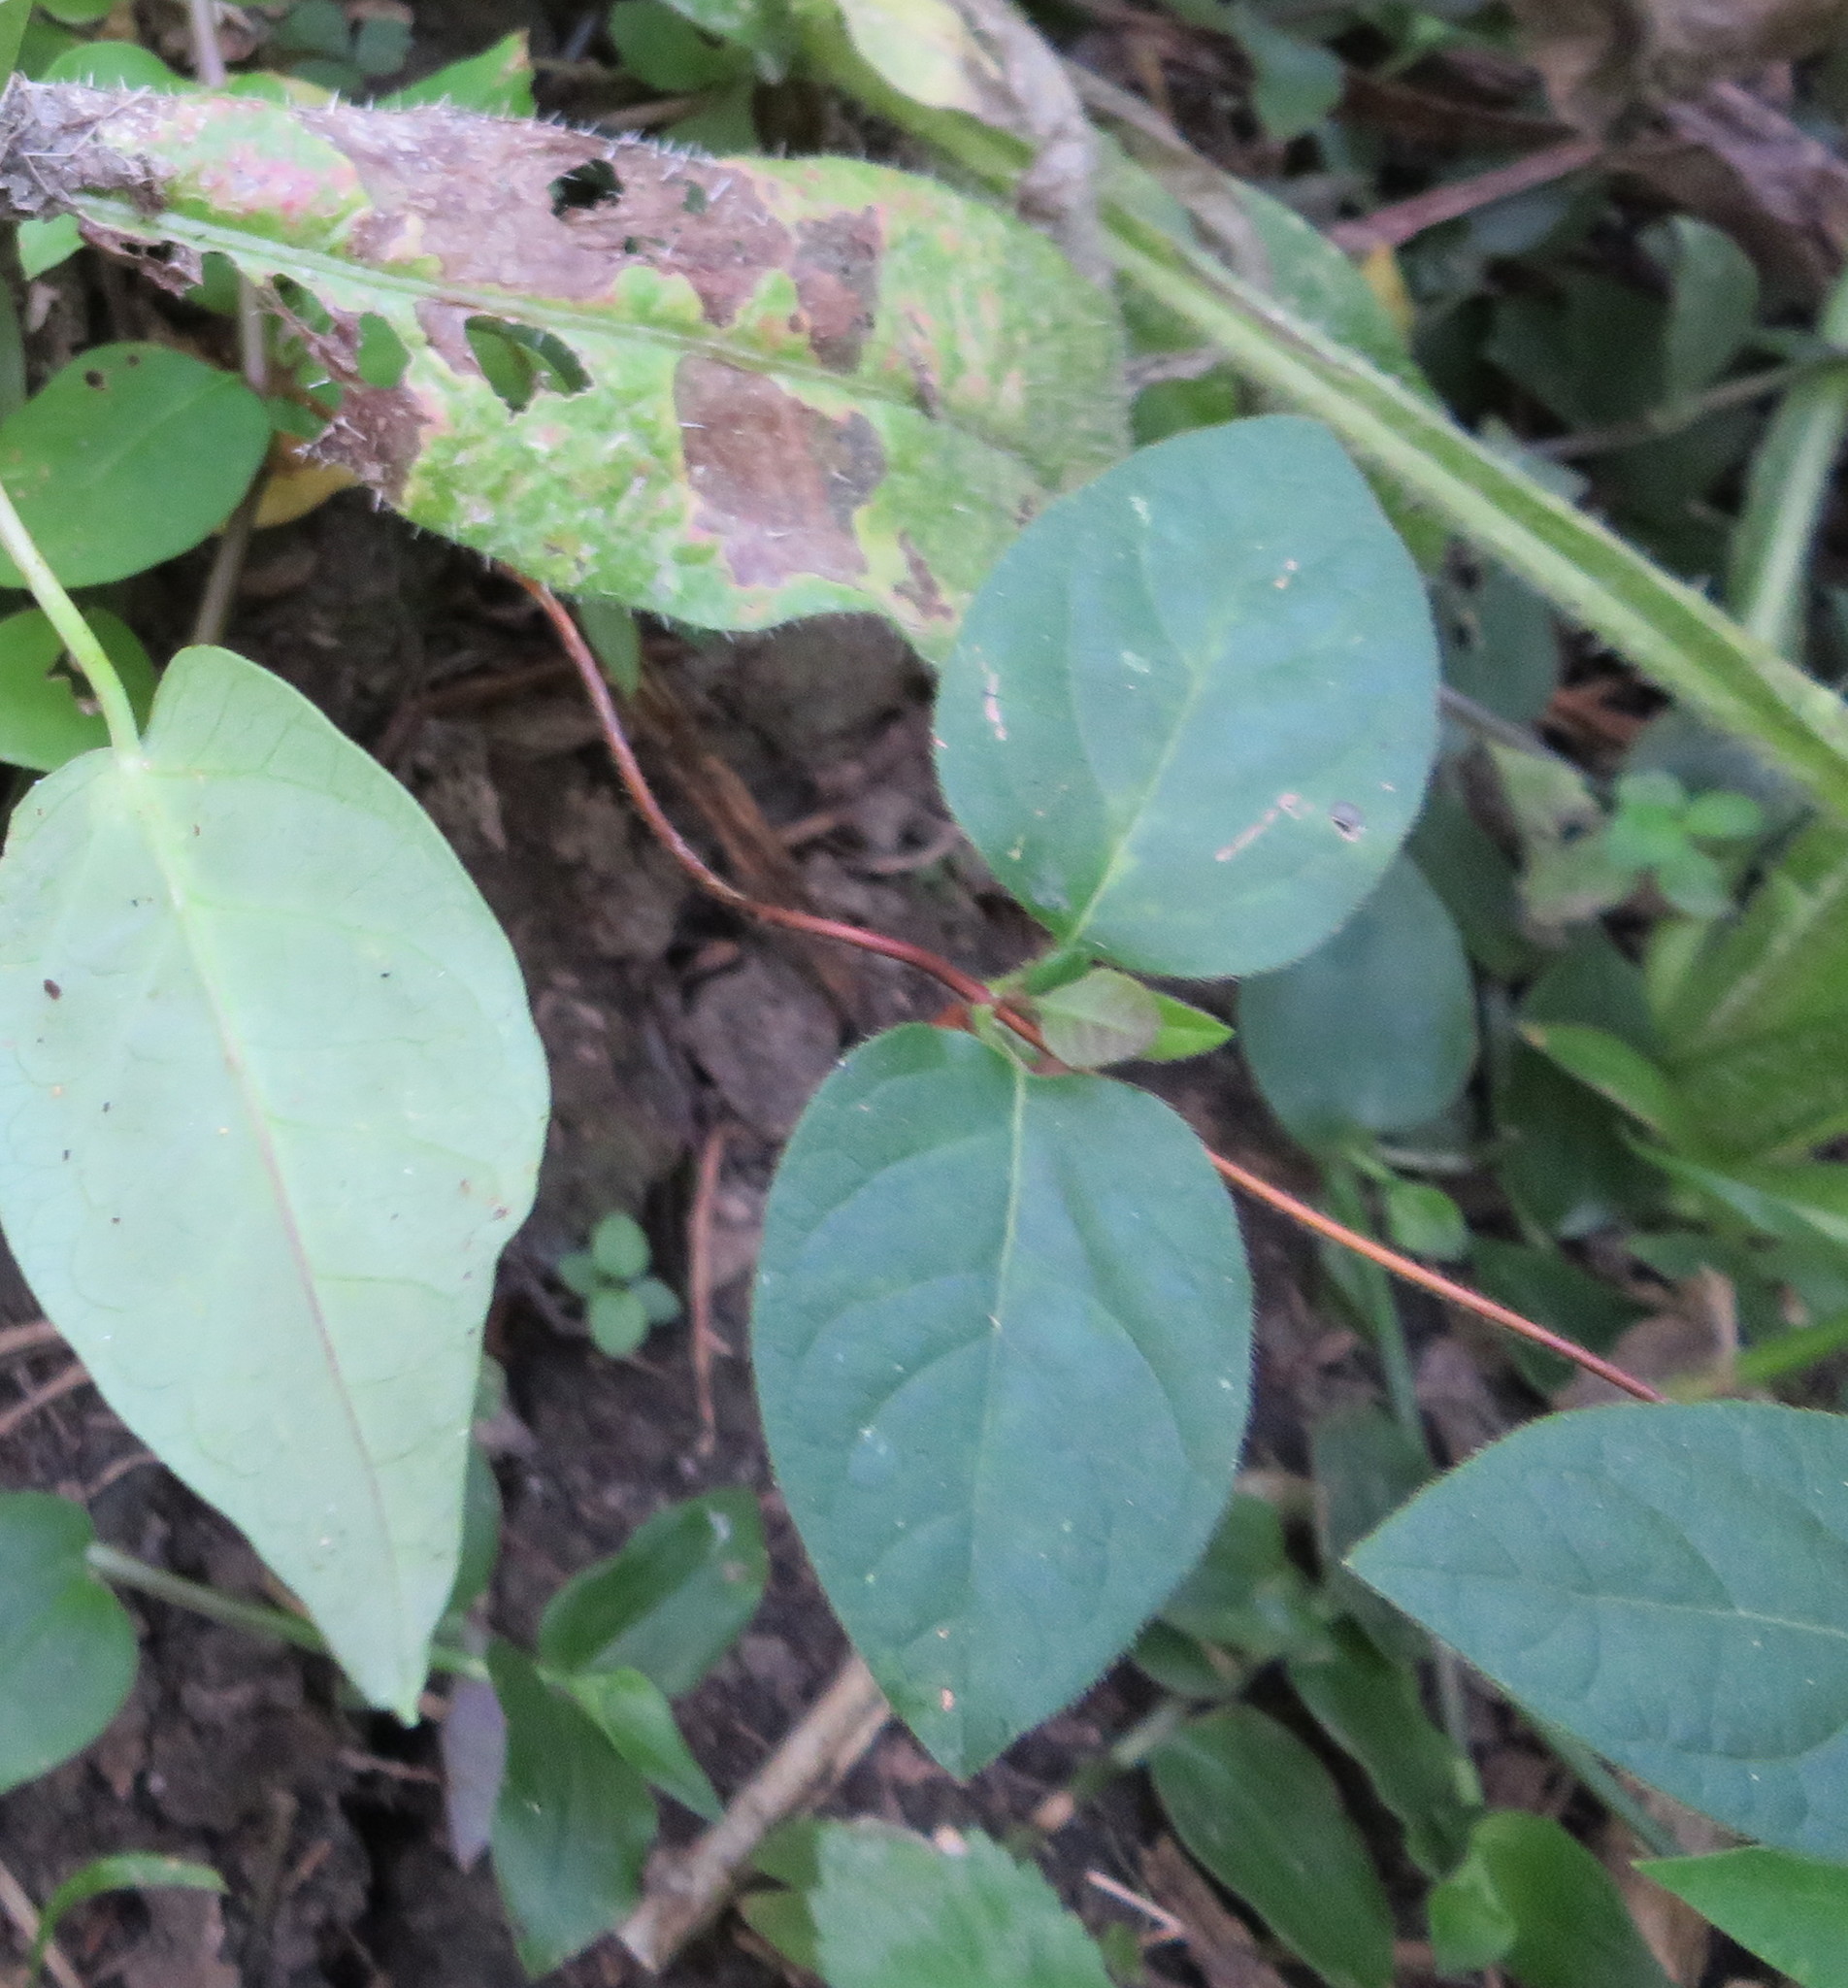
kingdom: Plantae
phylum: Tracheophyta
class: Magnoliopsida
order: Dipsacales
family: Caprifoliaceae
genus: Lonicera
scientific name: Lonicera japonica
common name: Japanese honeysuckle
